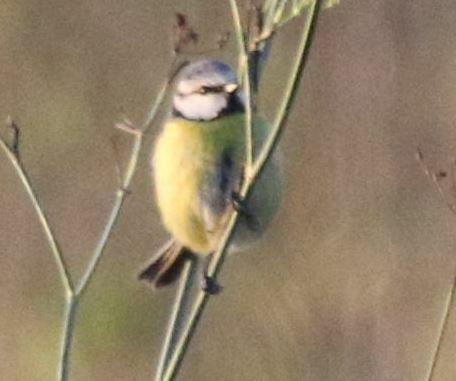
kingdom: Animalia
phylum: Chordata
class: Aves
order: Passeriformes
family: Paridae
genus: Cyanistes
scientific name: Cyanistes caeruleus
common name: Eurasian blue tit
